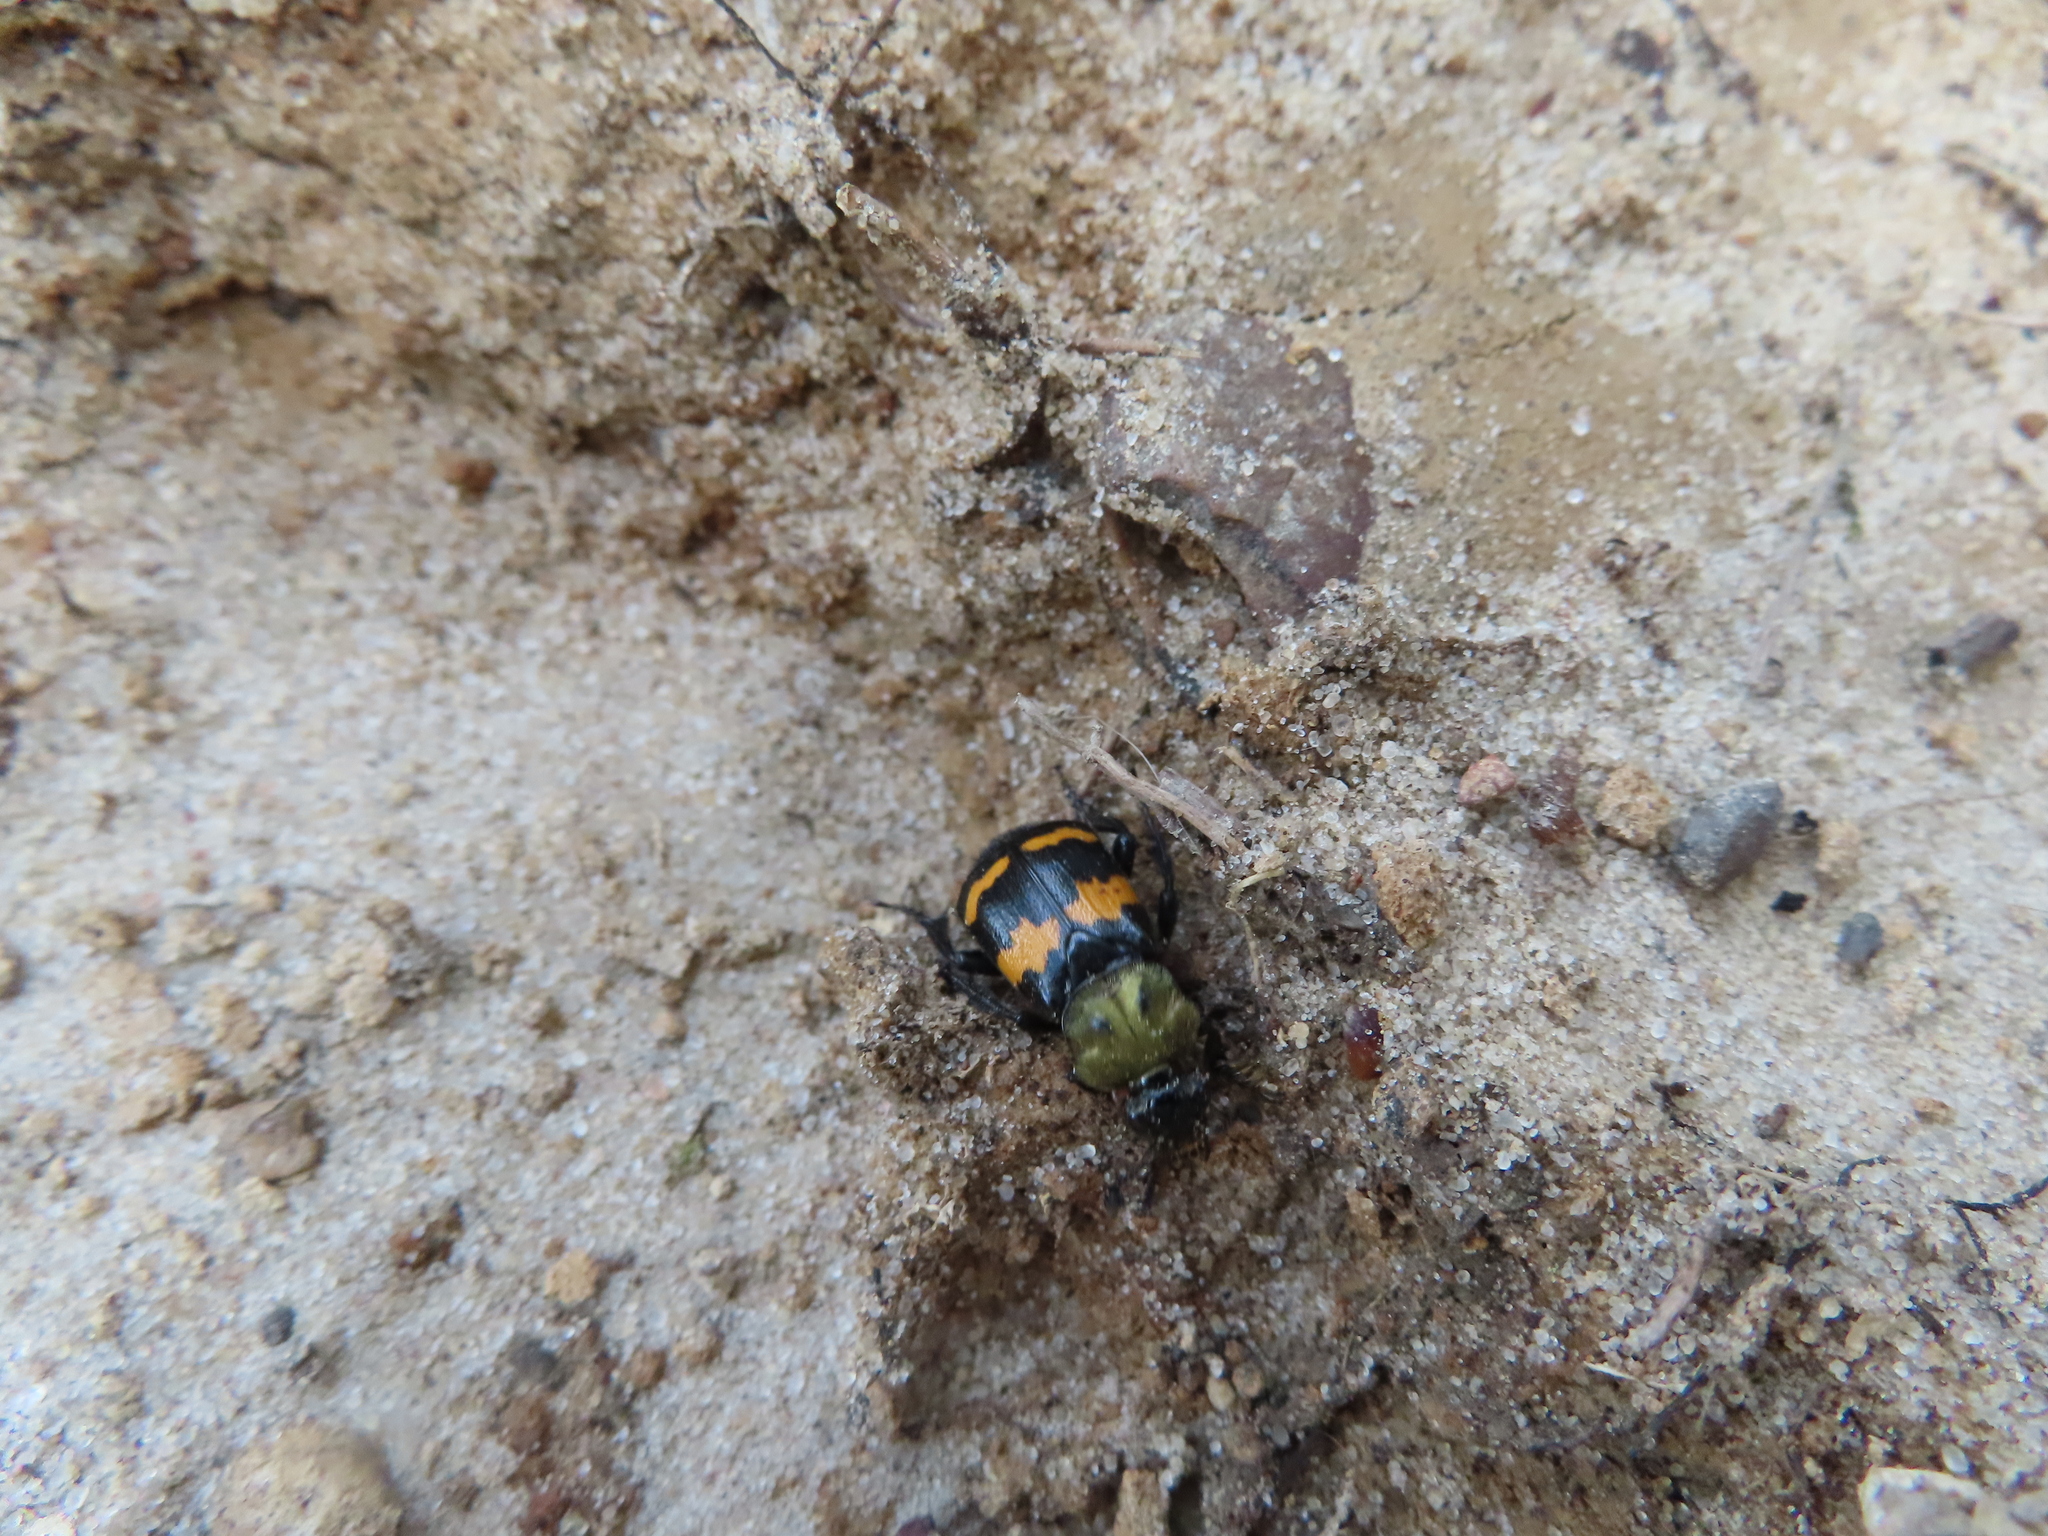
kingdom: Animalia
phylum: Arthropoda
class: Insecta
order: Coleoptera
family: Staphylinidae
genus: Nicrophorus
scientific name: Nicrophorus tomentosus
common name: Tomentose burying beetle
